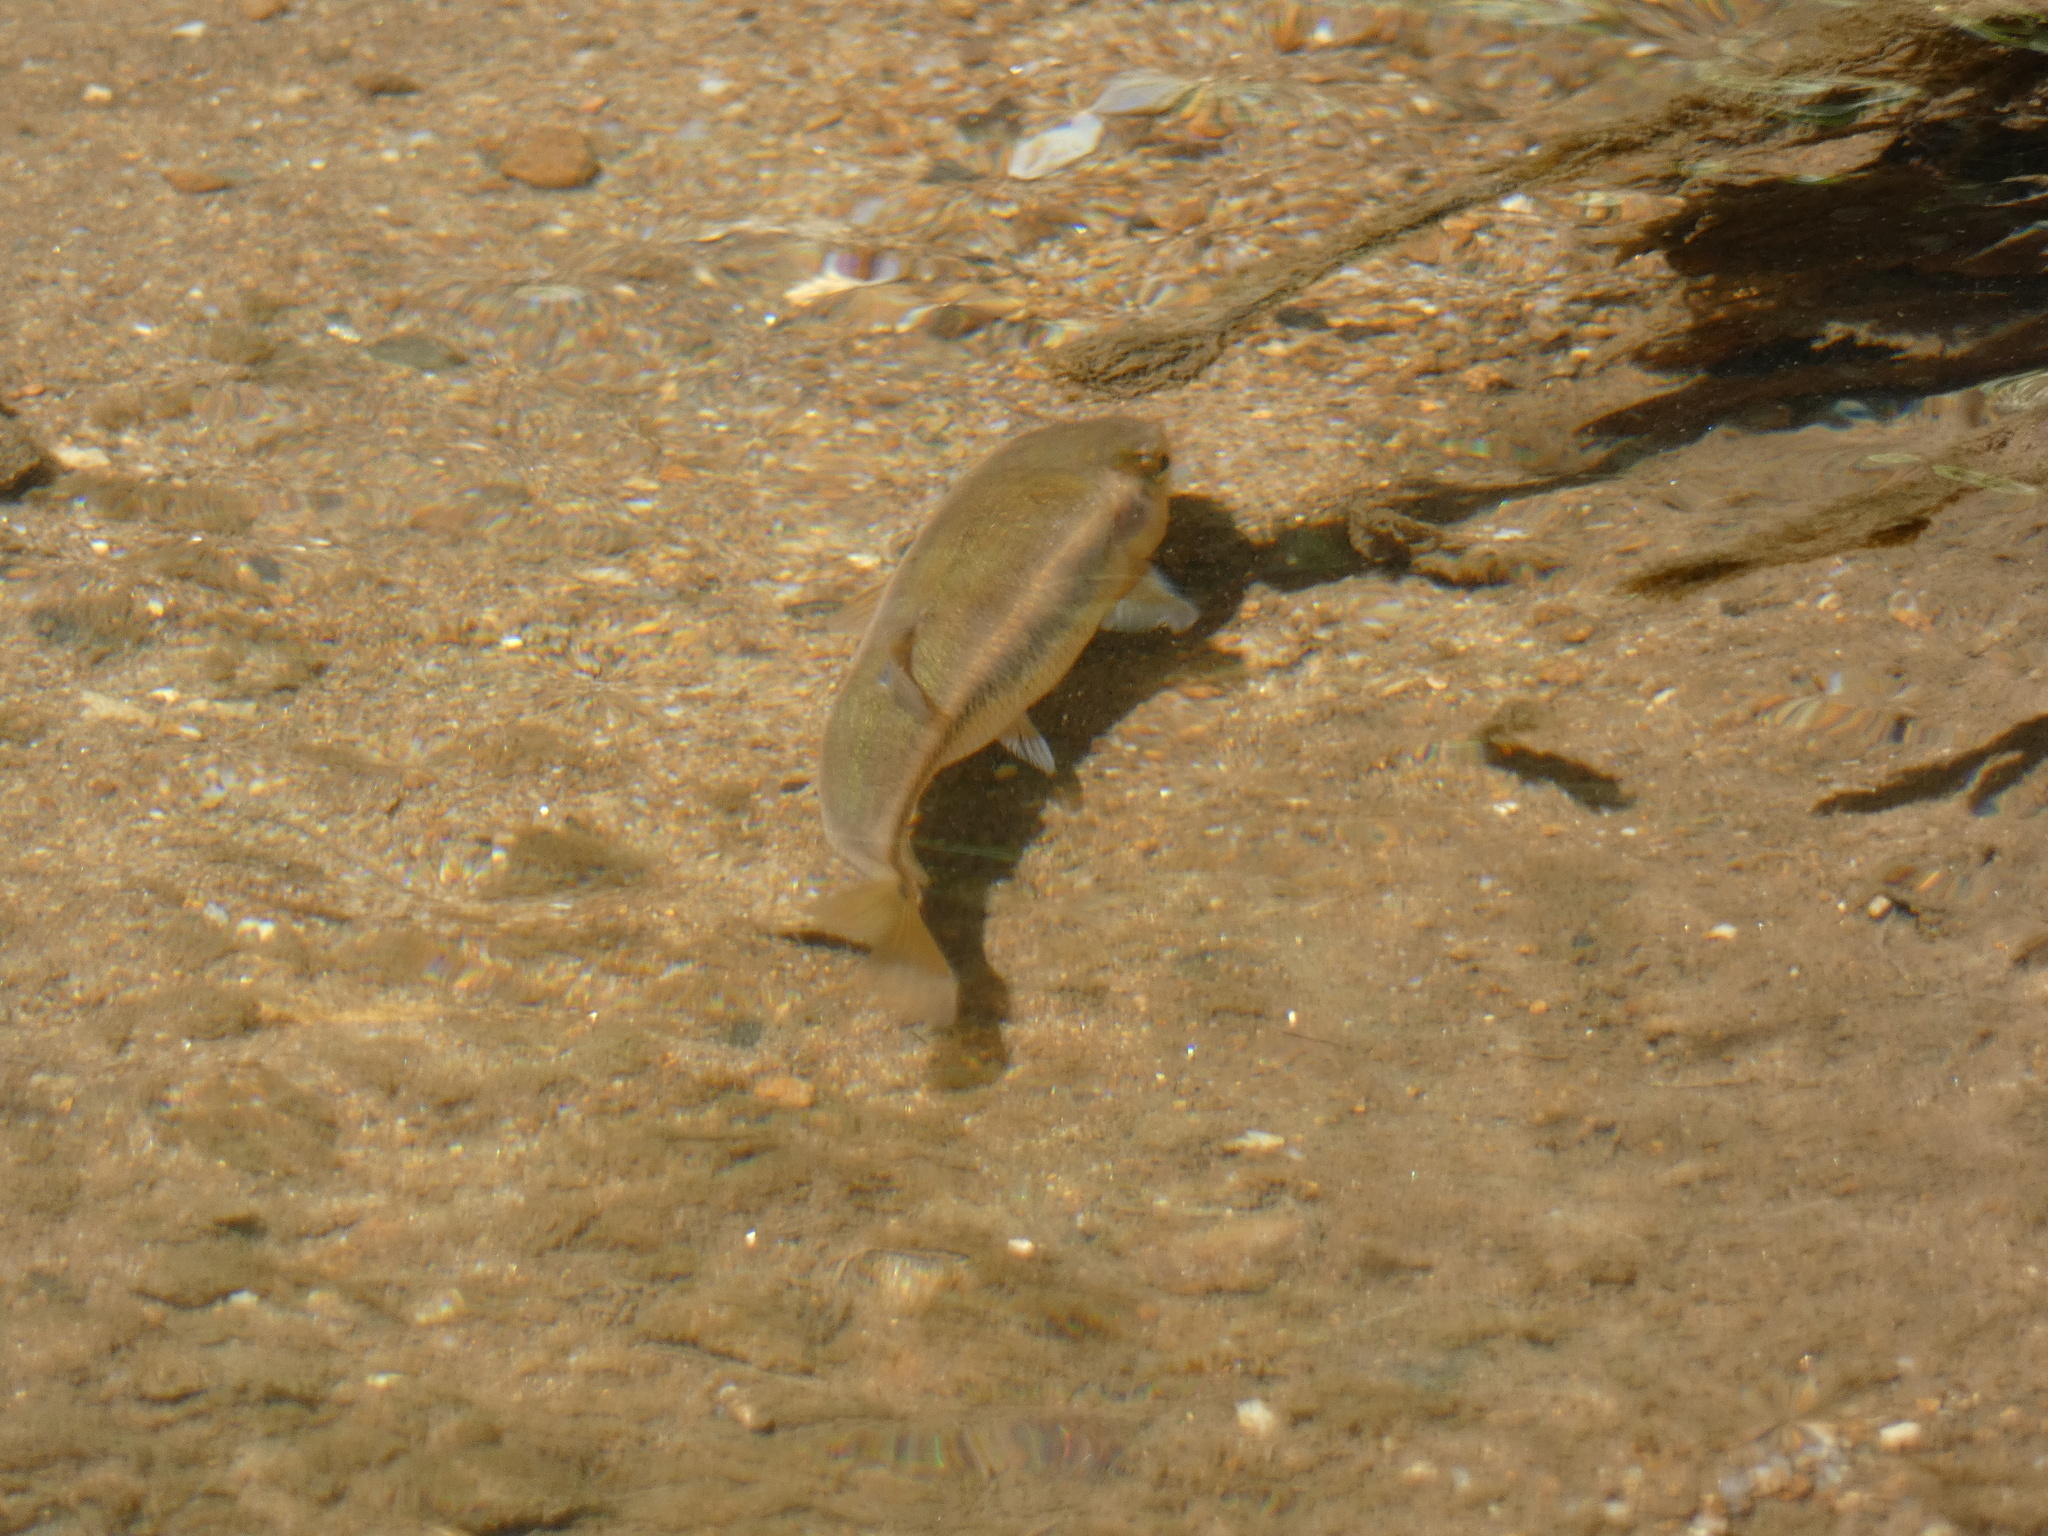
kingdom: Animalia
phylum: Chordata
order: Cypriniformes
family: Cyprinidae
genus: Semotilus
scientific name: Semotilus atromaculatus
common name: Creek chub
